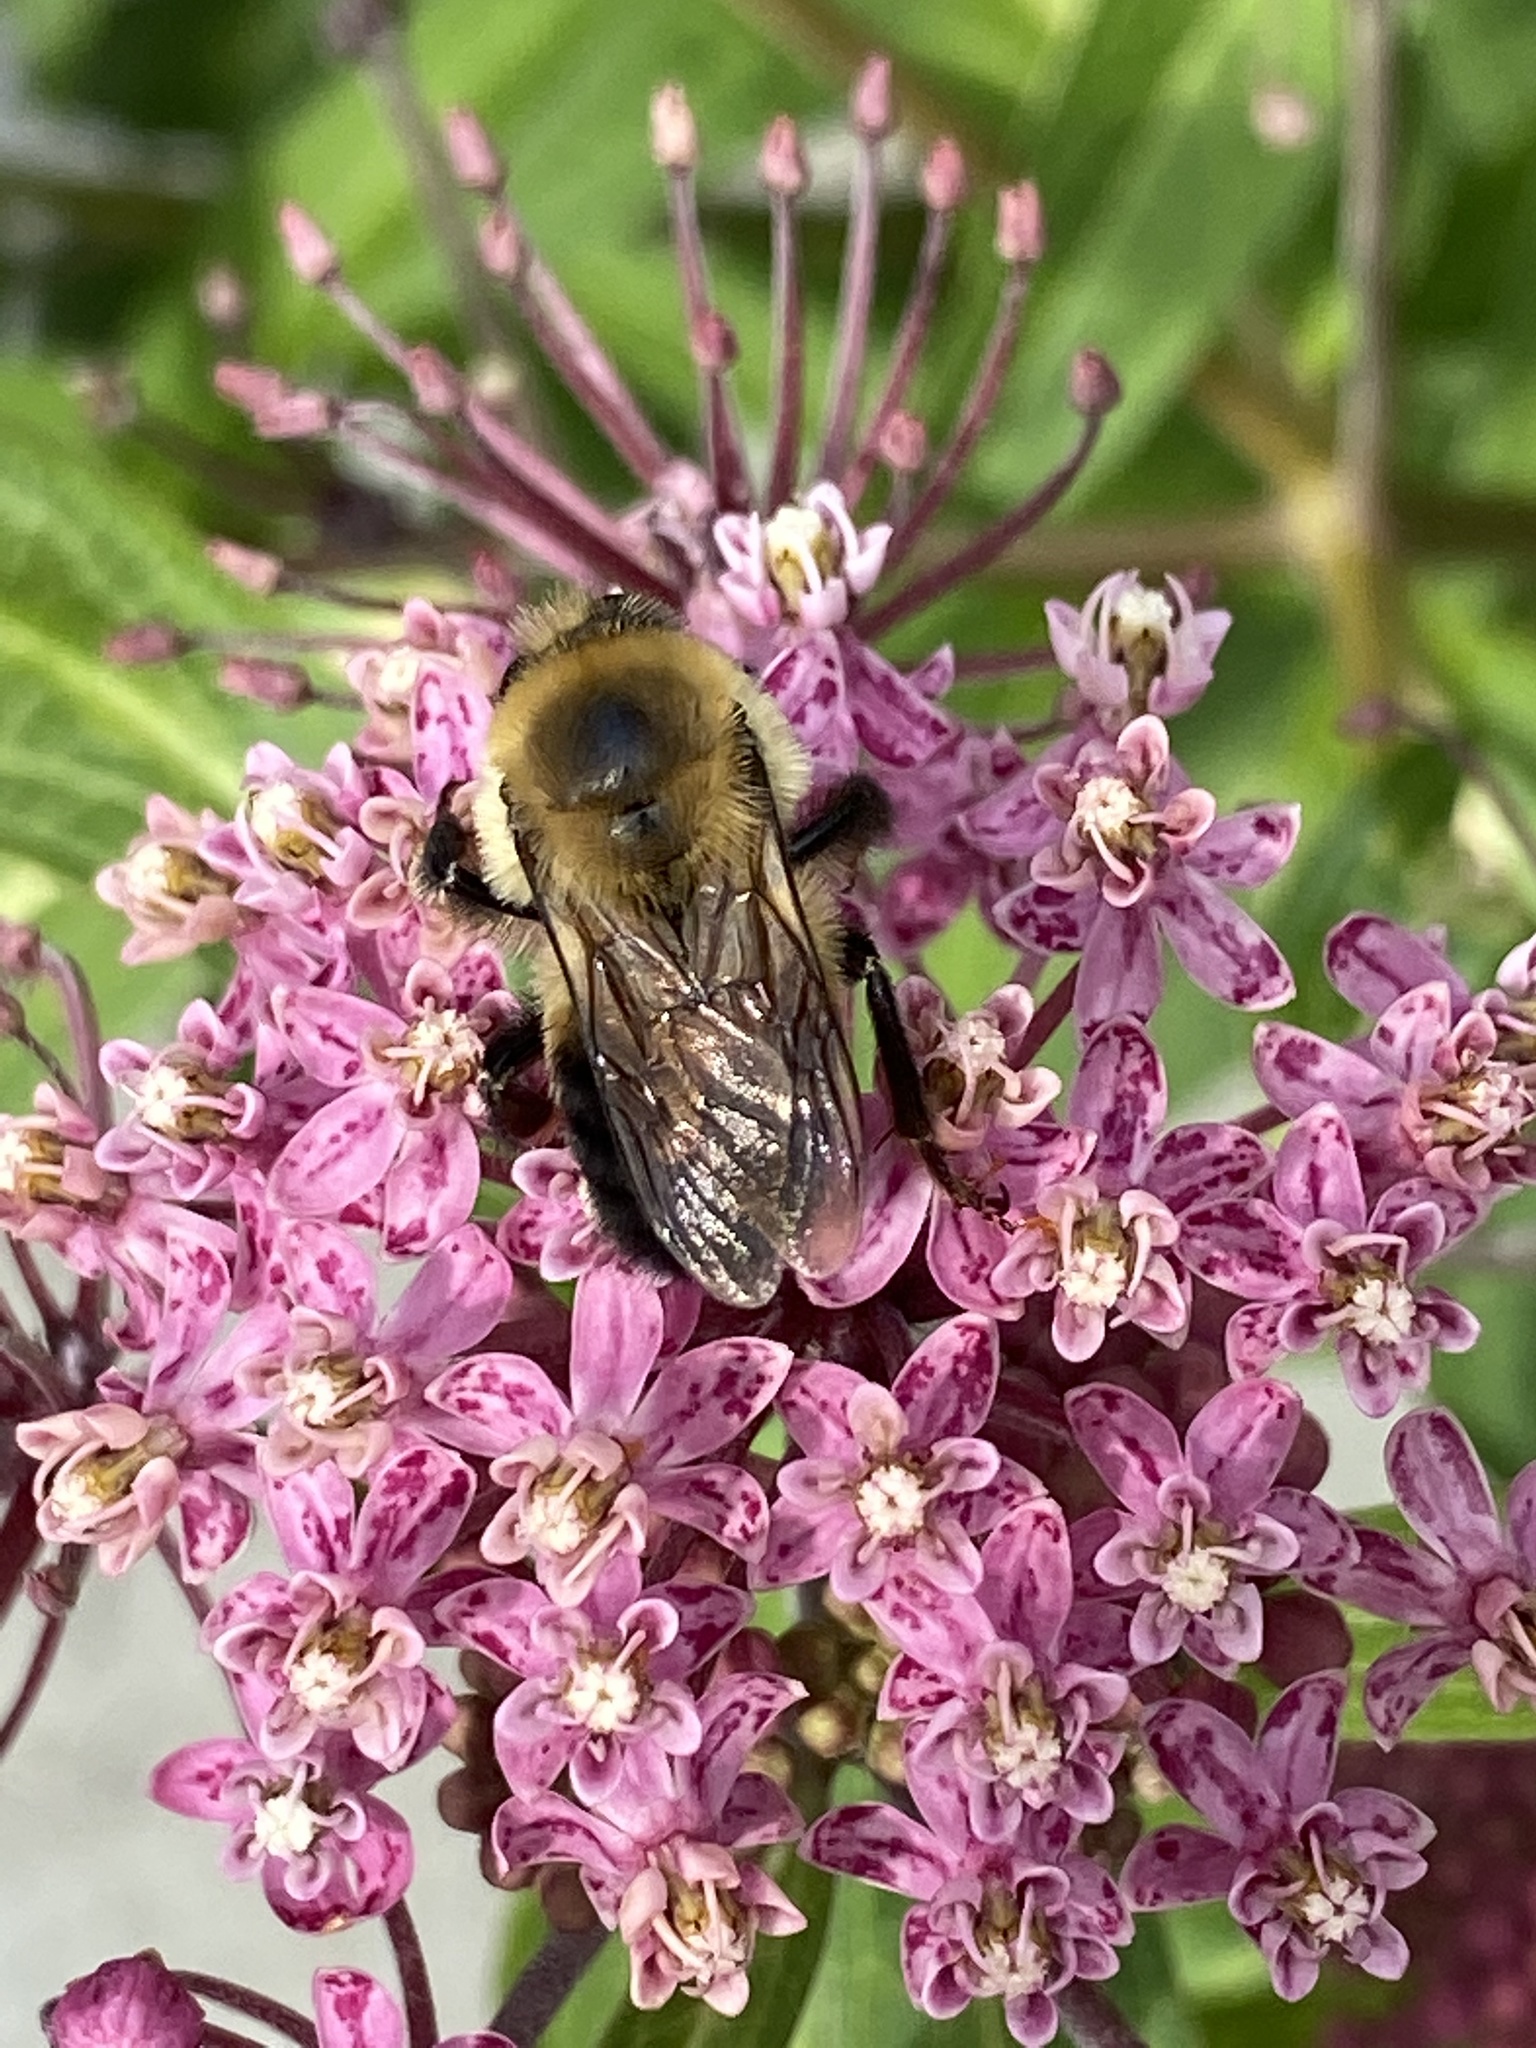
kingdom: Animalia
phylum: Arthropoda
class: Insecta
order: Hymenoptera
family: Apidae
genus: Bombus
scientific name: Bombus griseocollis
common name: Brown-belted bumble bee
